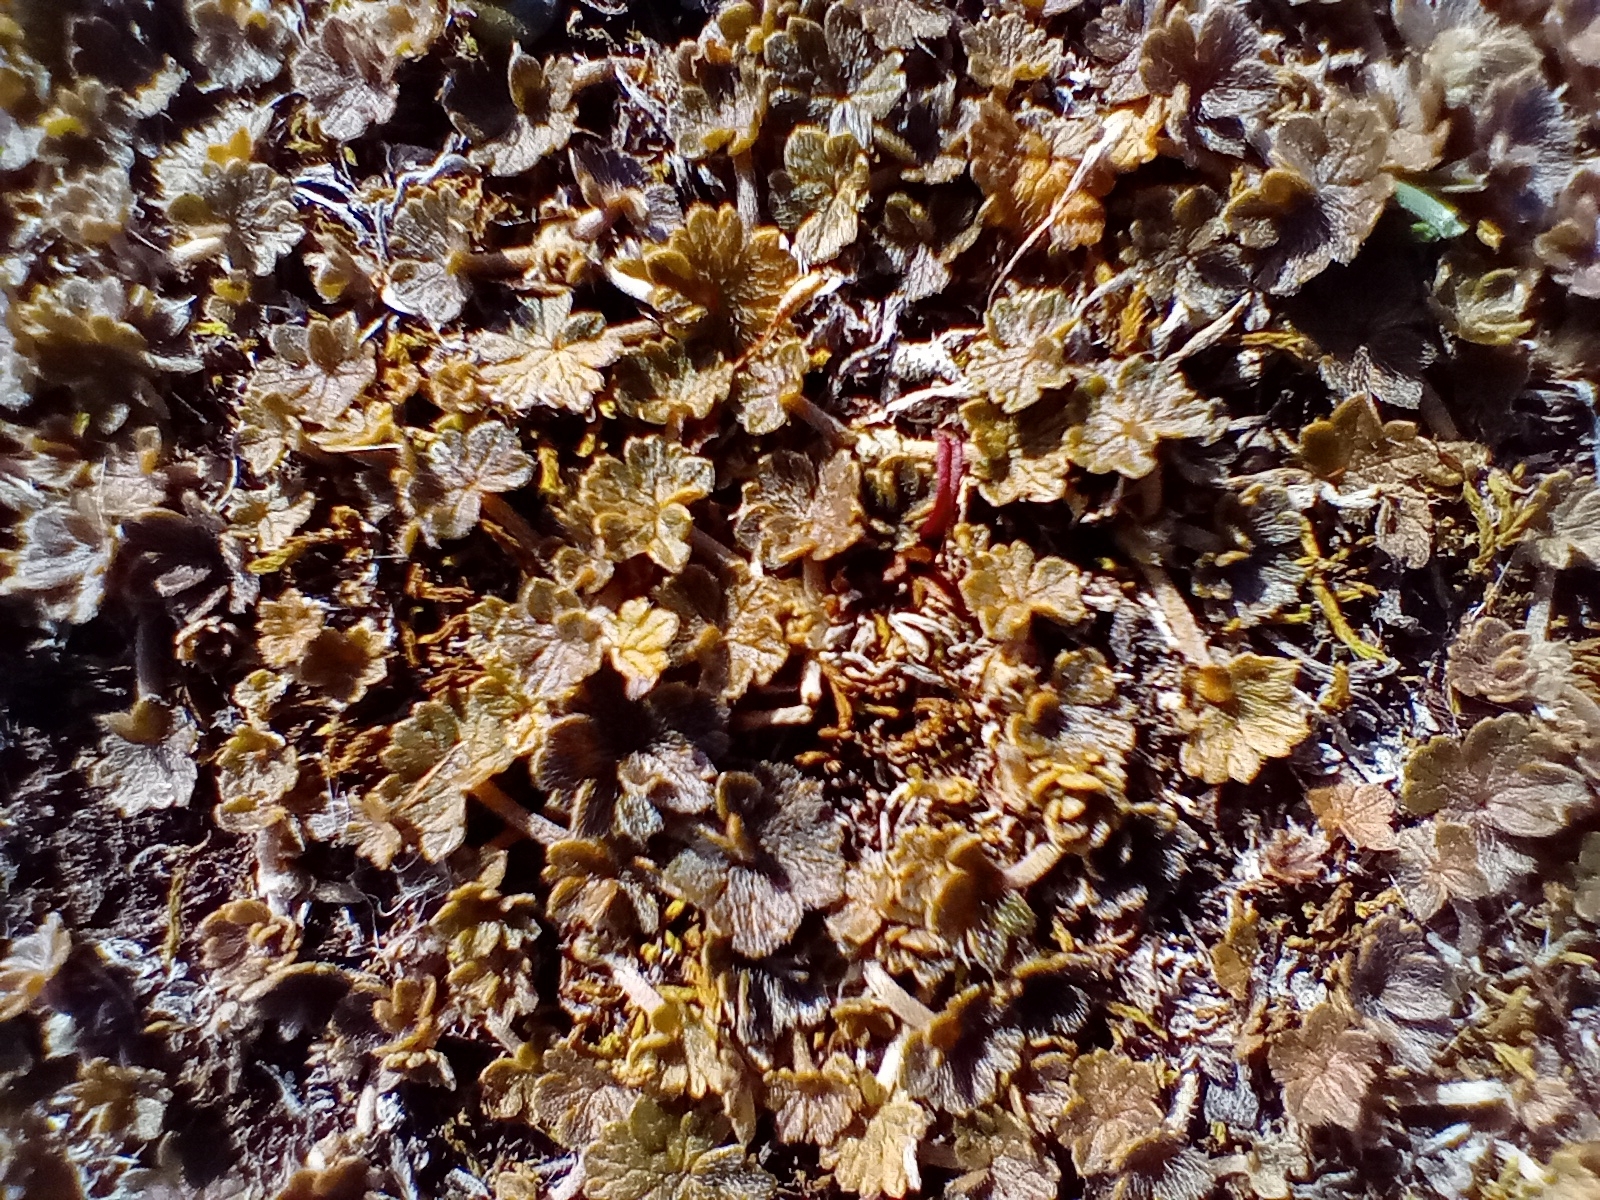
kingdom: Plantae
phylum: Tracheophyta
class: Magnoliopsida
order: Geraniales
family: Geraniaceae
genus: Geranium
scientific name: Geranium brevicaule
